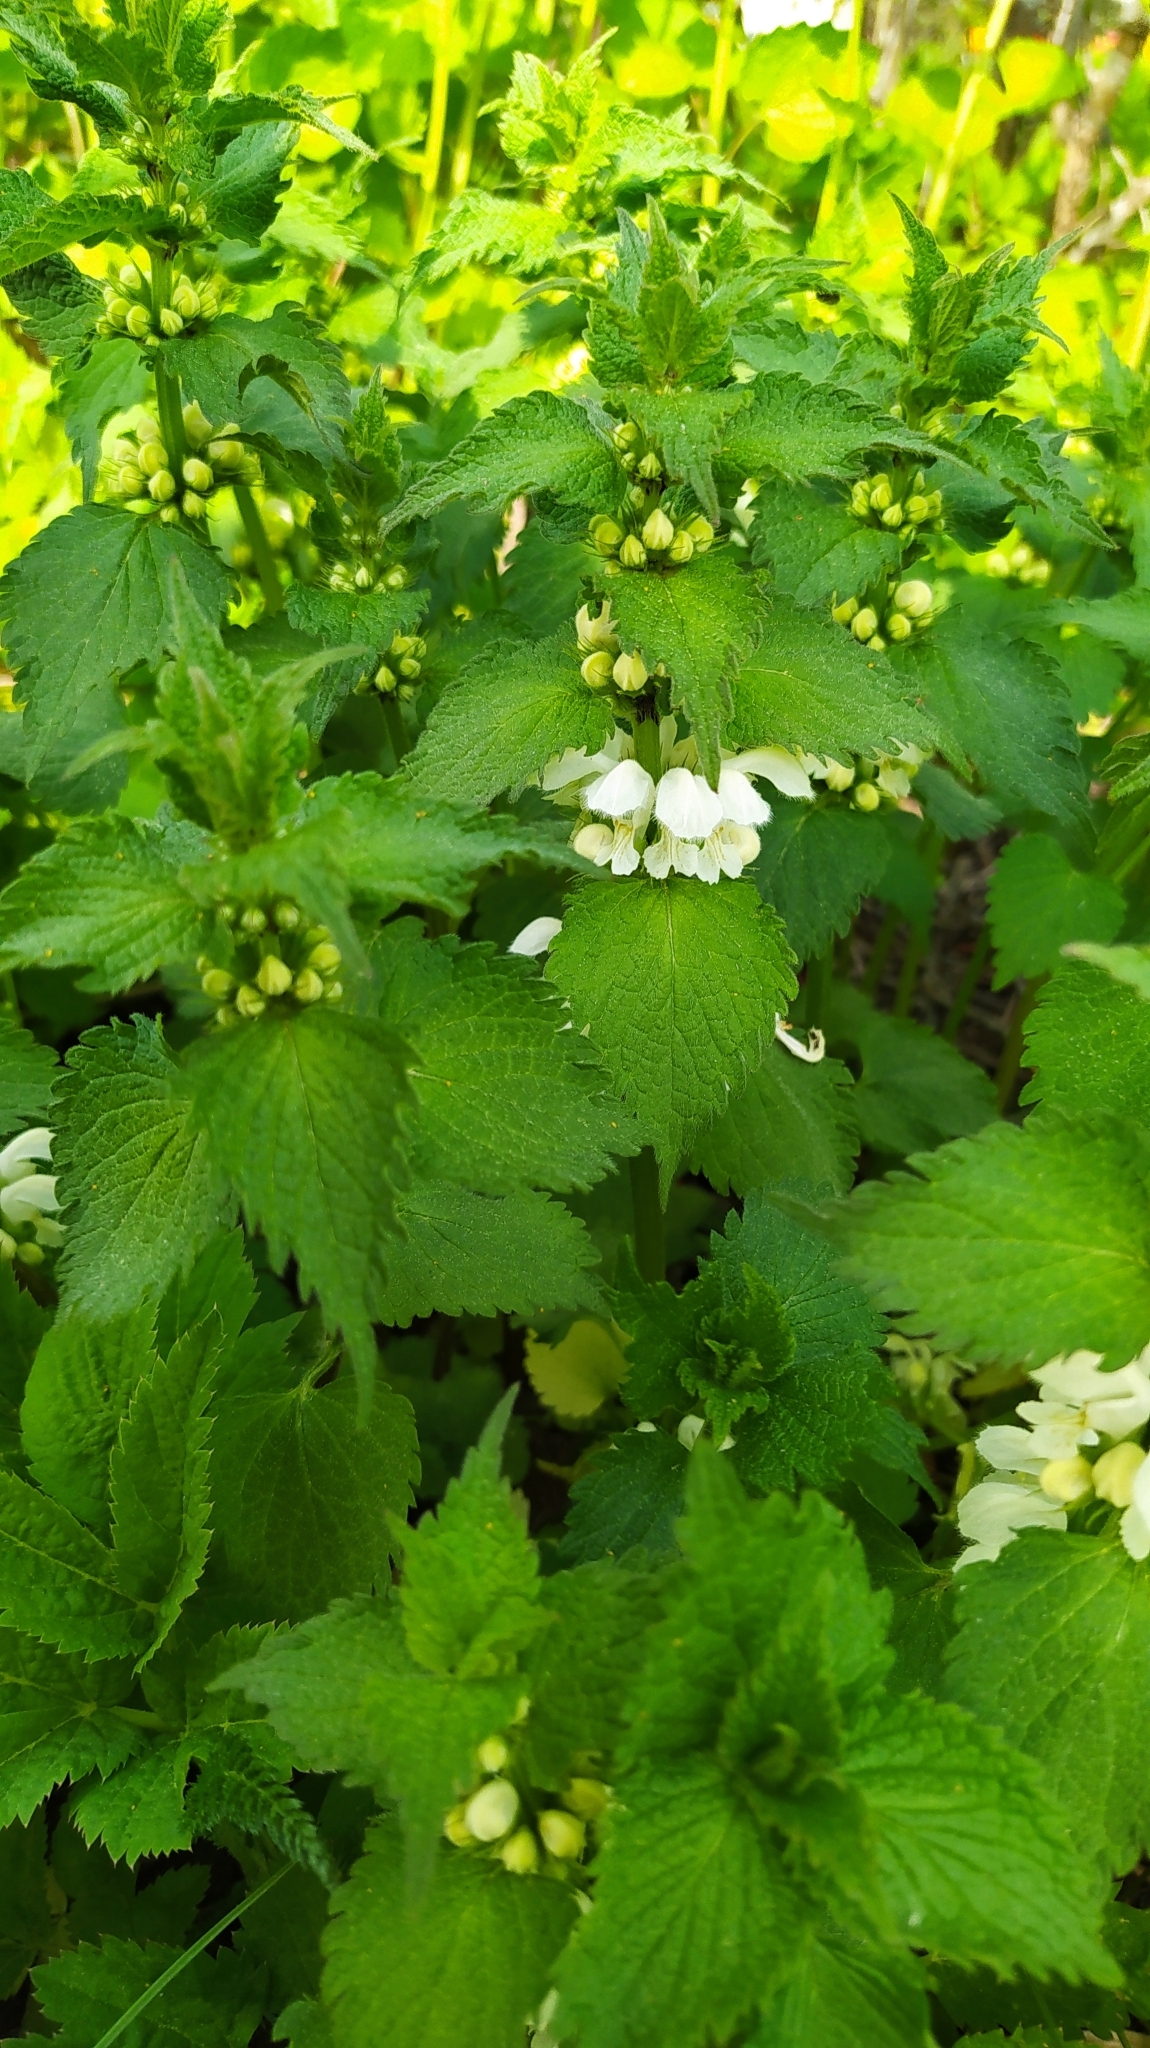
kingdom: Plantae
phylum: Tracheophyta
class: Magnoliopsida
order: Lamiales
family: Lamiaceae
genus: Lamium
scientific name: Lamium album
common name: White dead-nettle
